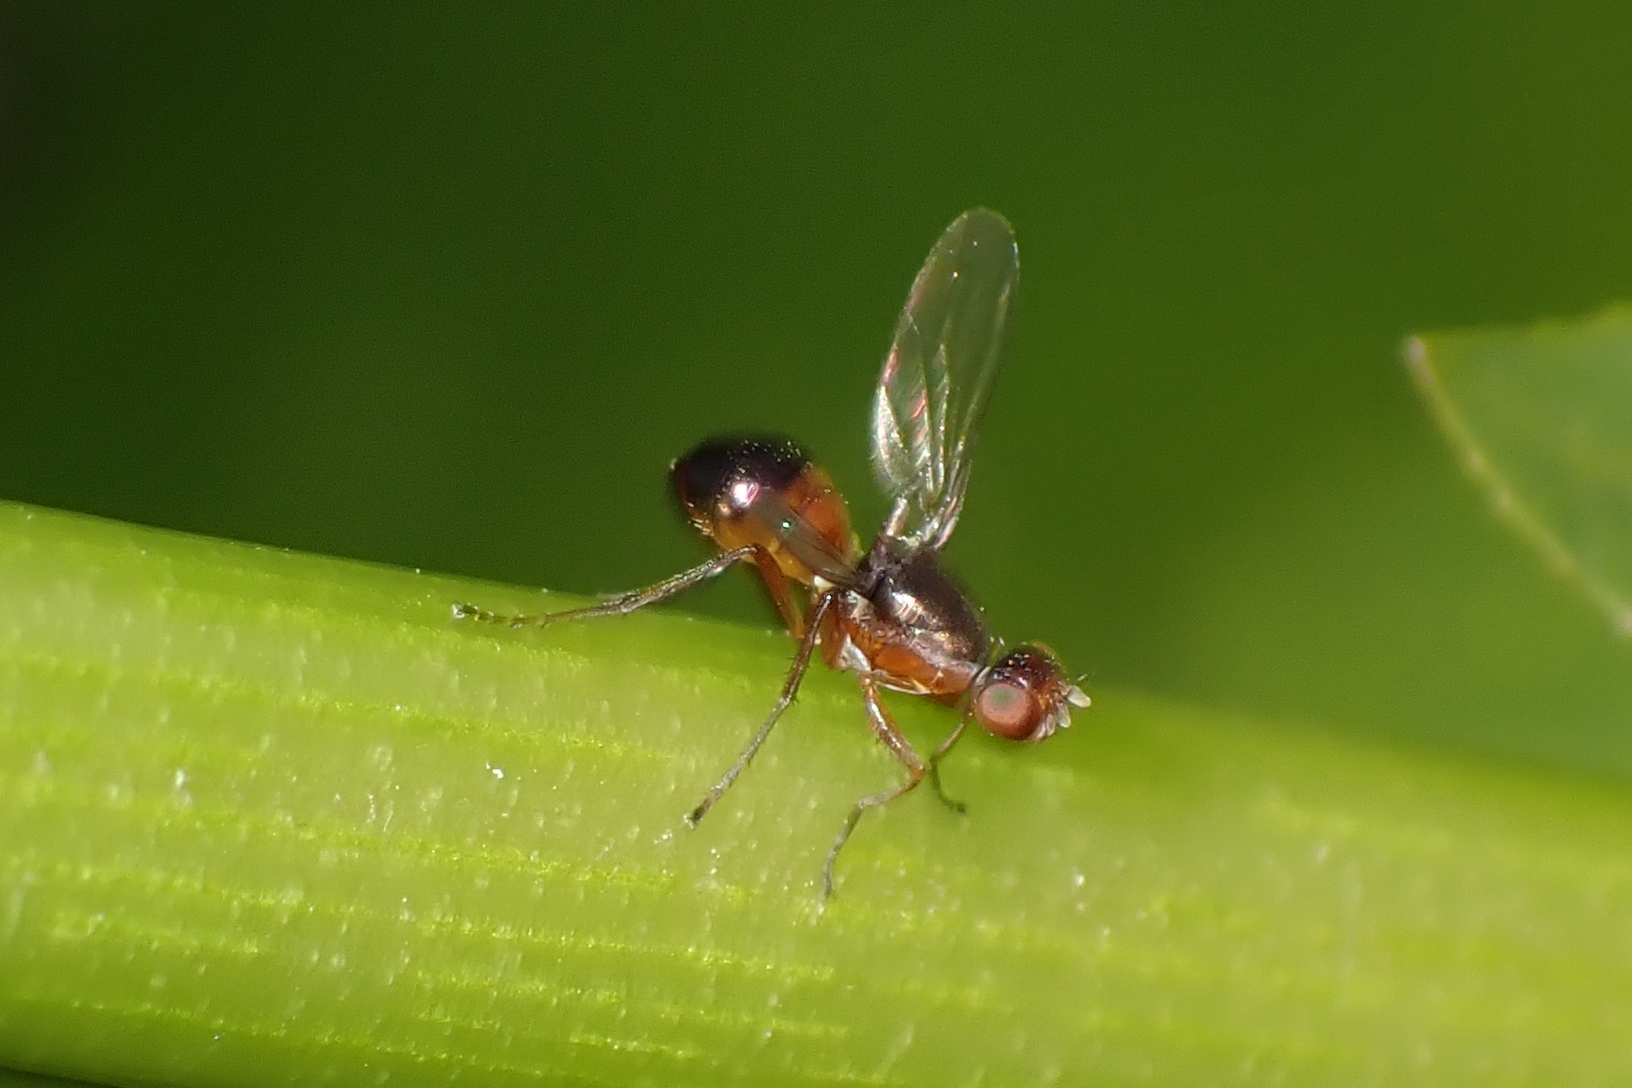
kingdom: Animalia
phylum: Arthropoda
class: Insecta
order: Diptera
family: Sepsidae
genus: Lasionemopoda
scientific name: Lasionemopoda hirsuta
